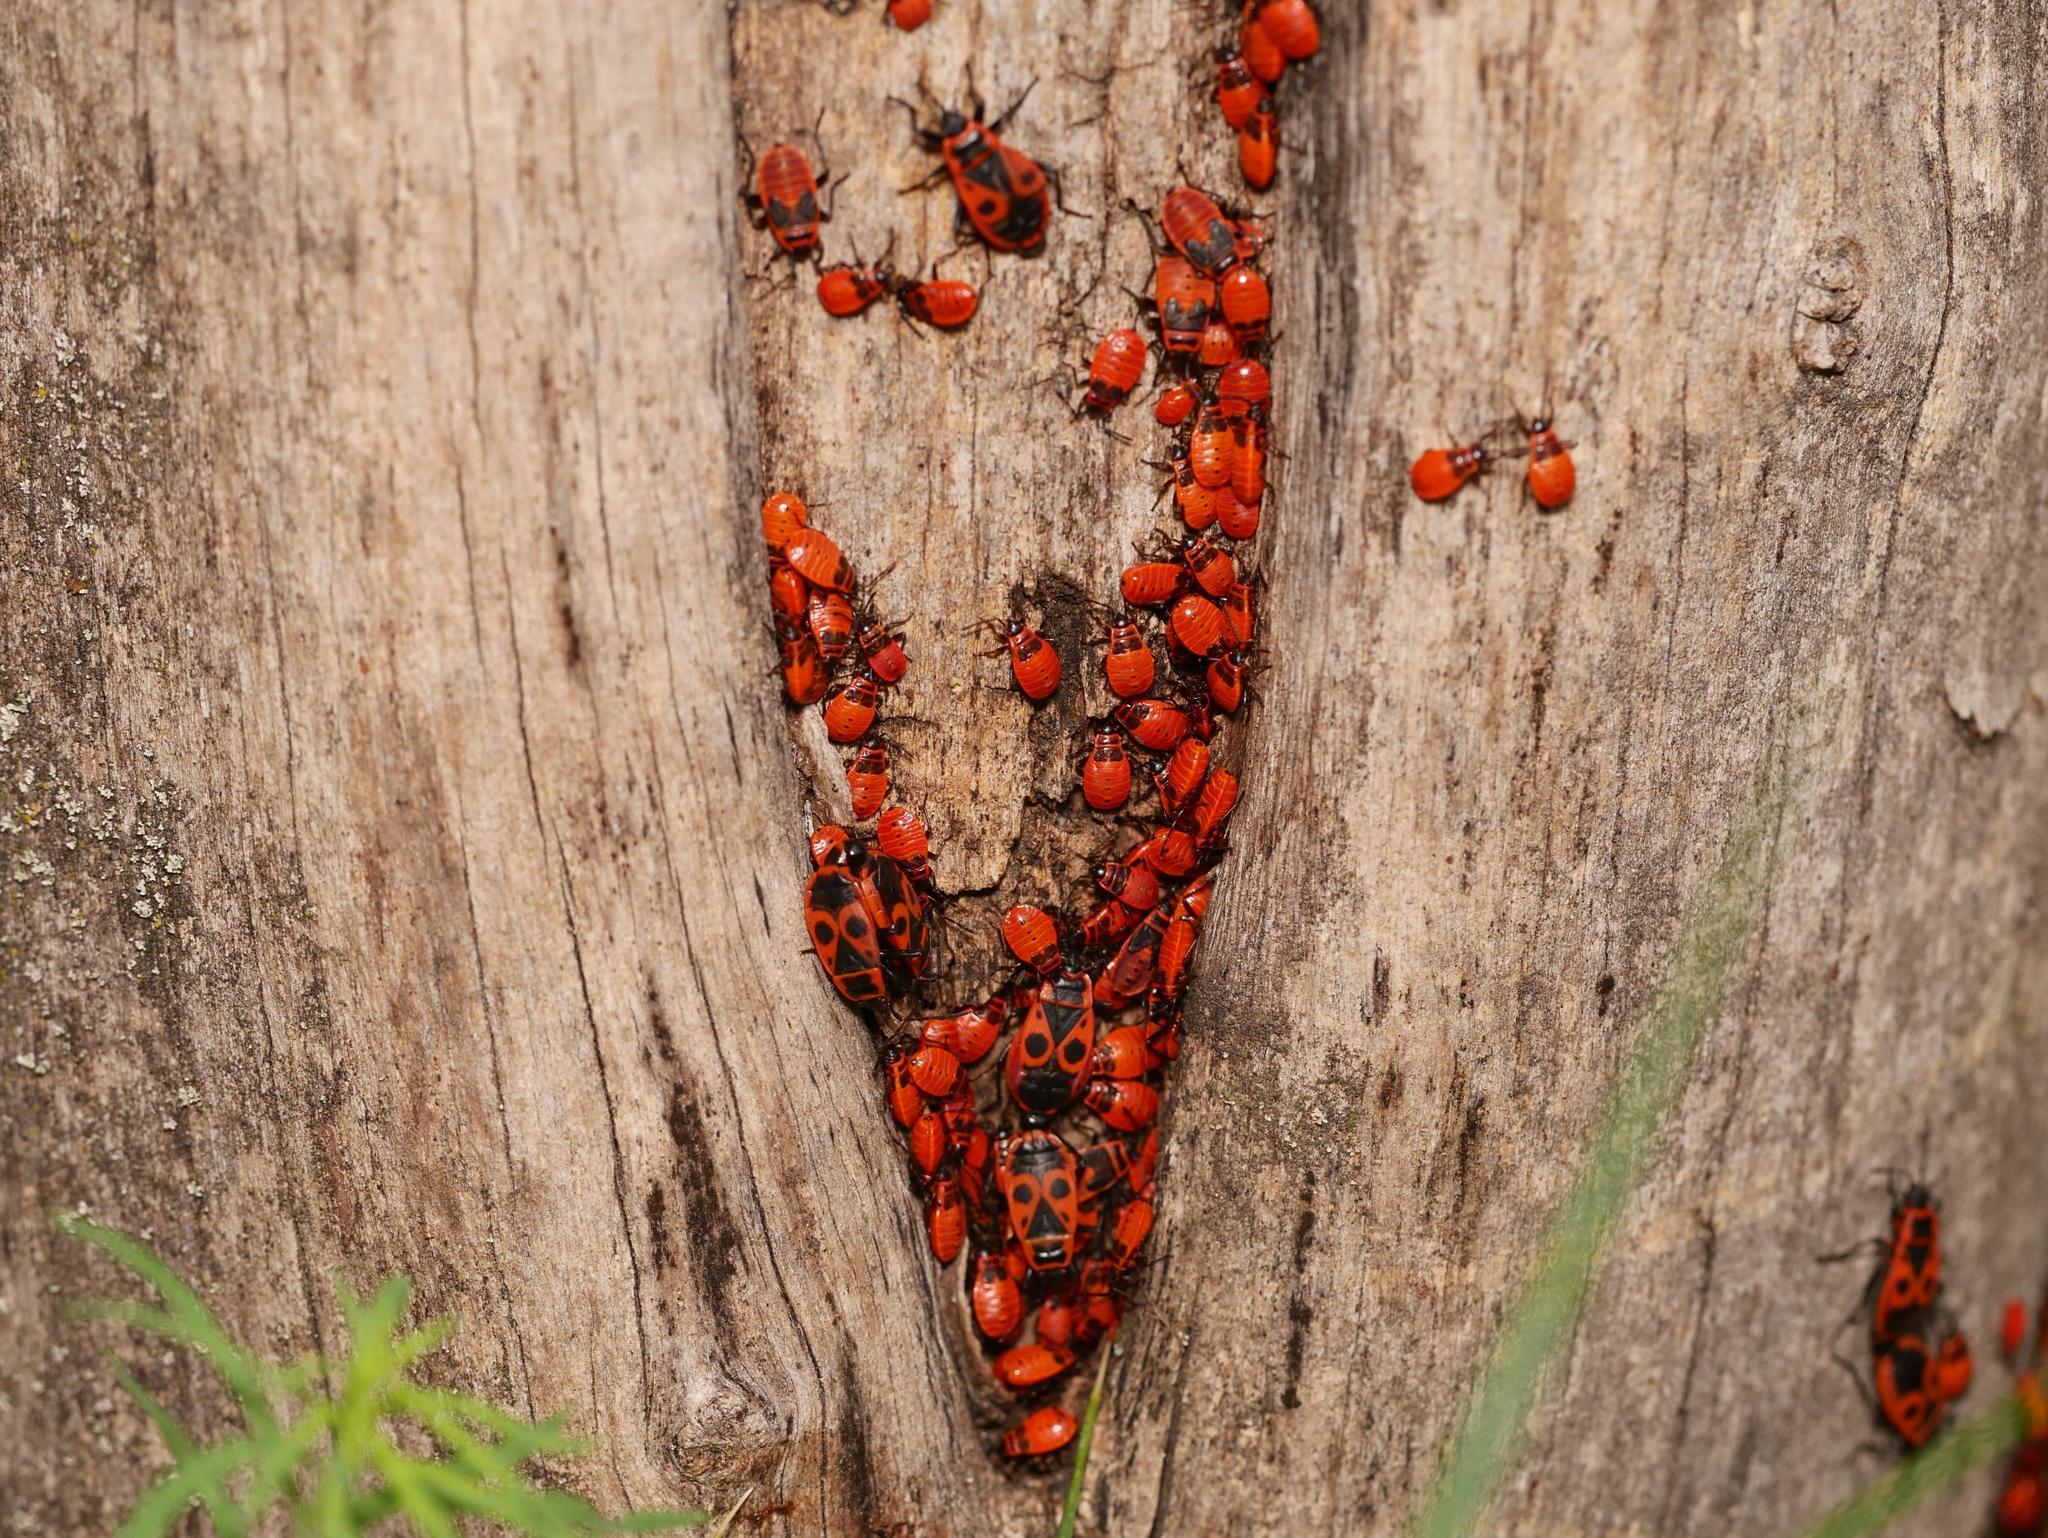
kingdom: Animalia
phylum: Arthropoda
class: Insecta
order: Hemiptera
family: Pyrrhocoridae
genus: Pyrrhocoris
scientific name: Pyrrhocoris apterus
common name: Firebug
